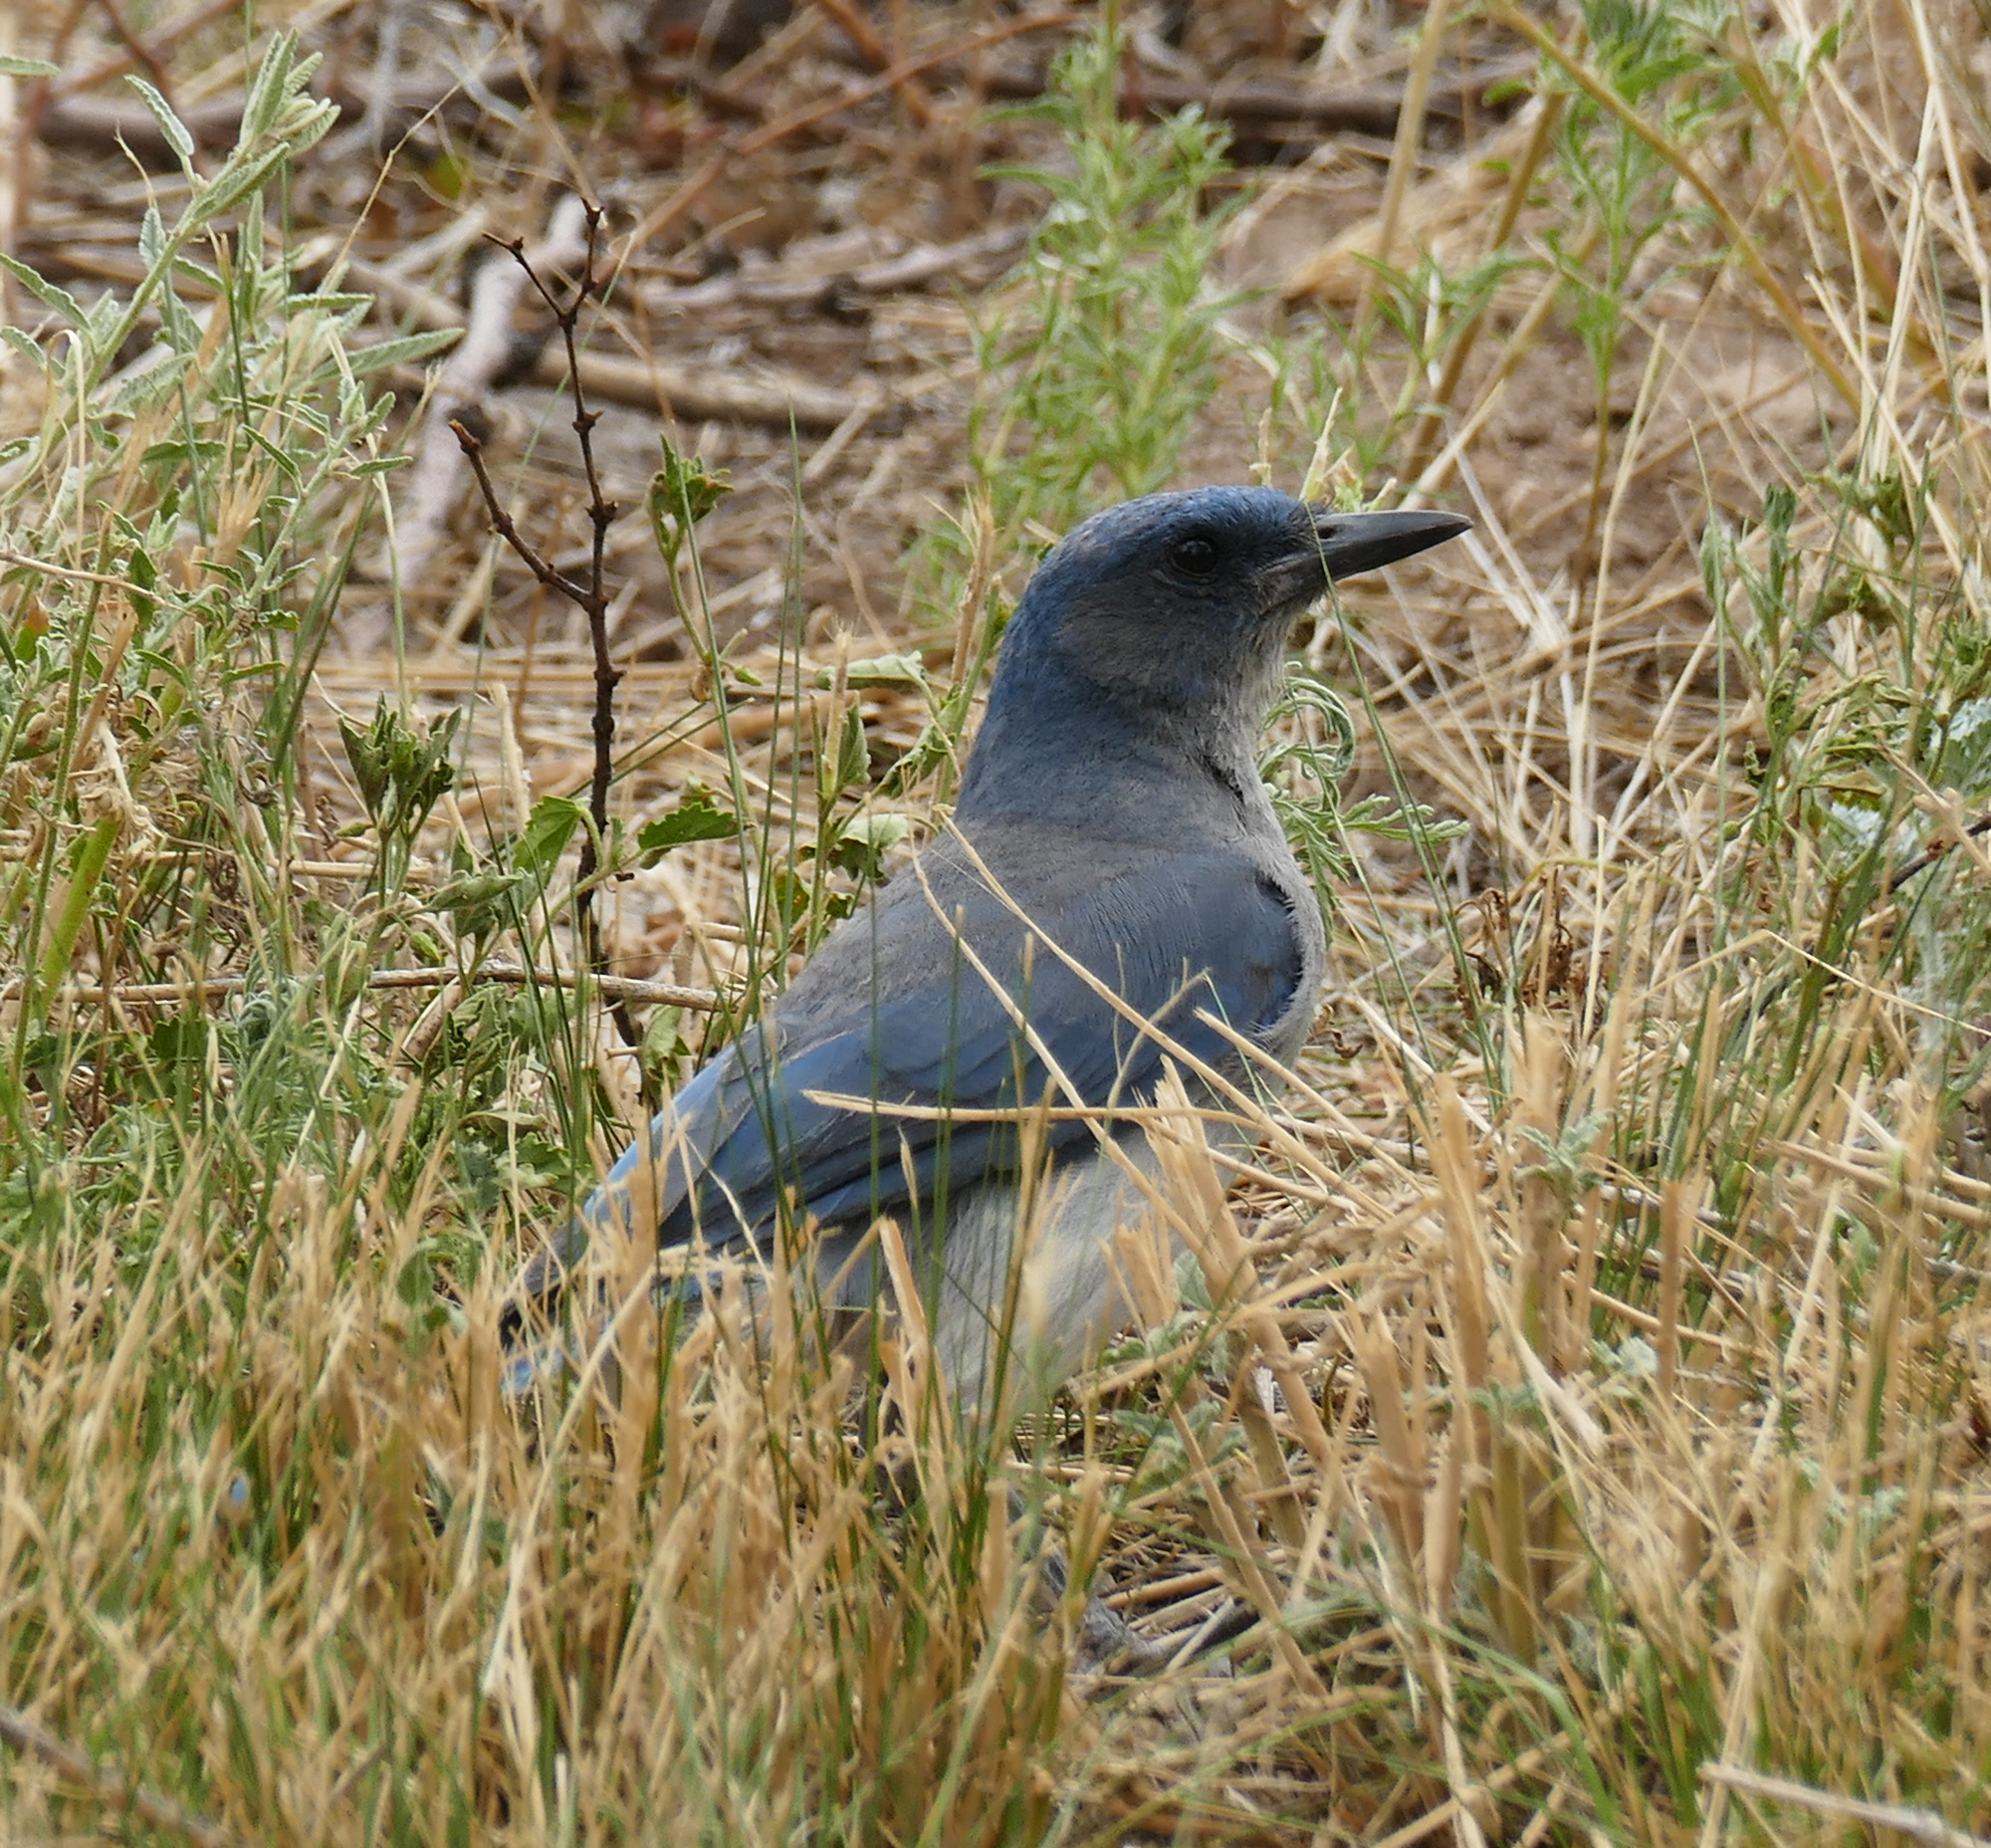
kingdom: Animalia
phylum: Chordata
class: Aves
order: Passeriformes
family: Corvidae
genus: Aphelocoma
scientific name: Aphelocoma wollweberi
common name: Mexican jay
